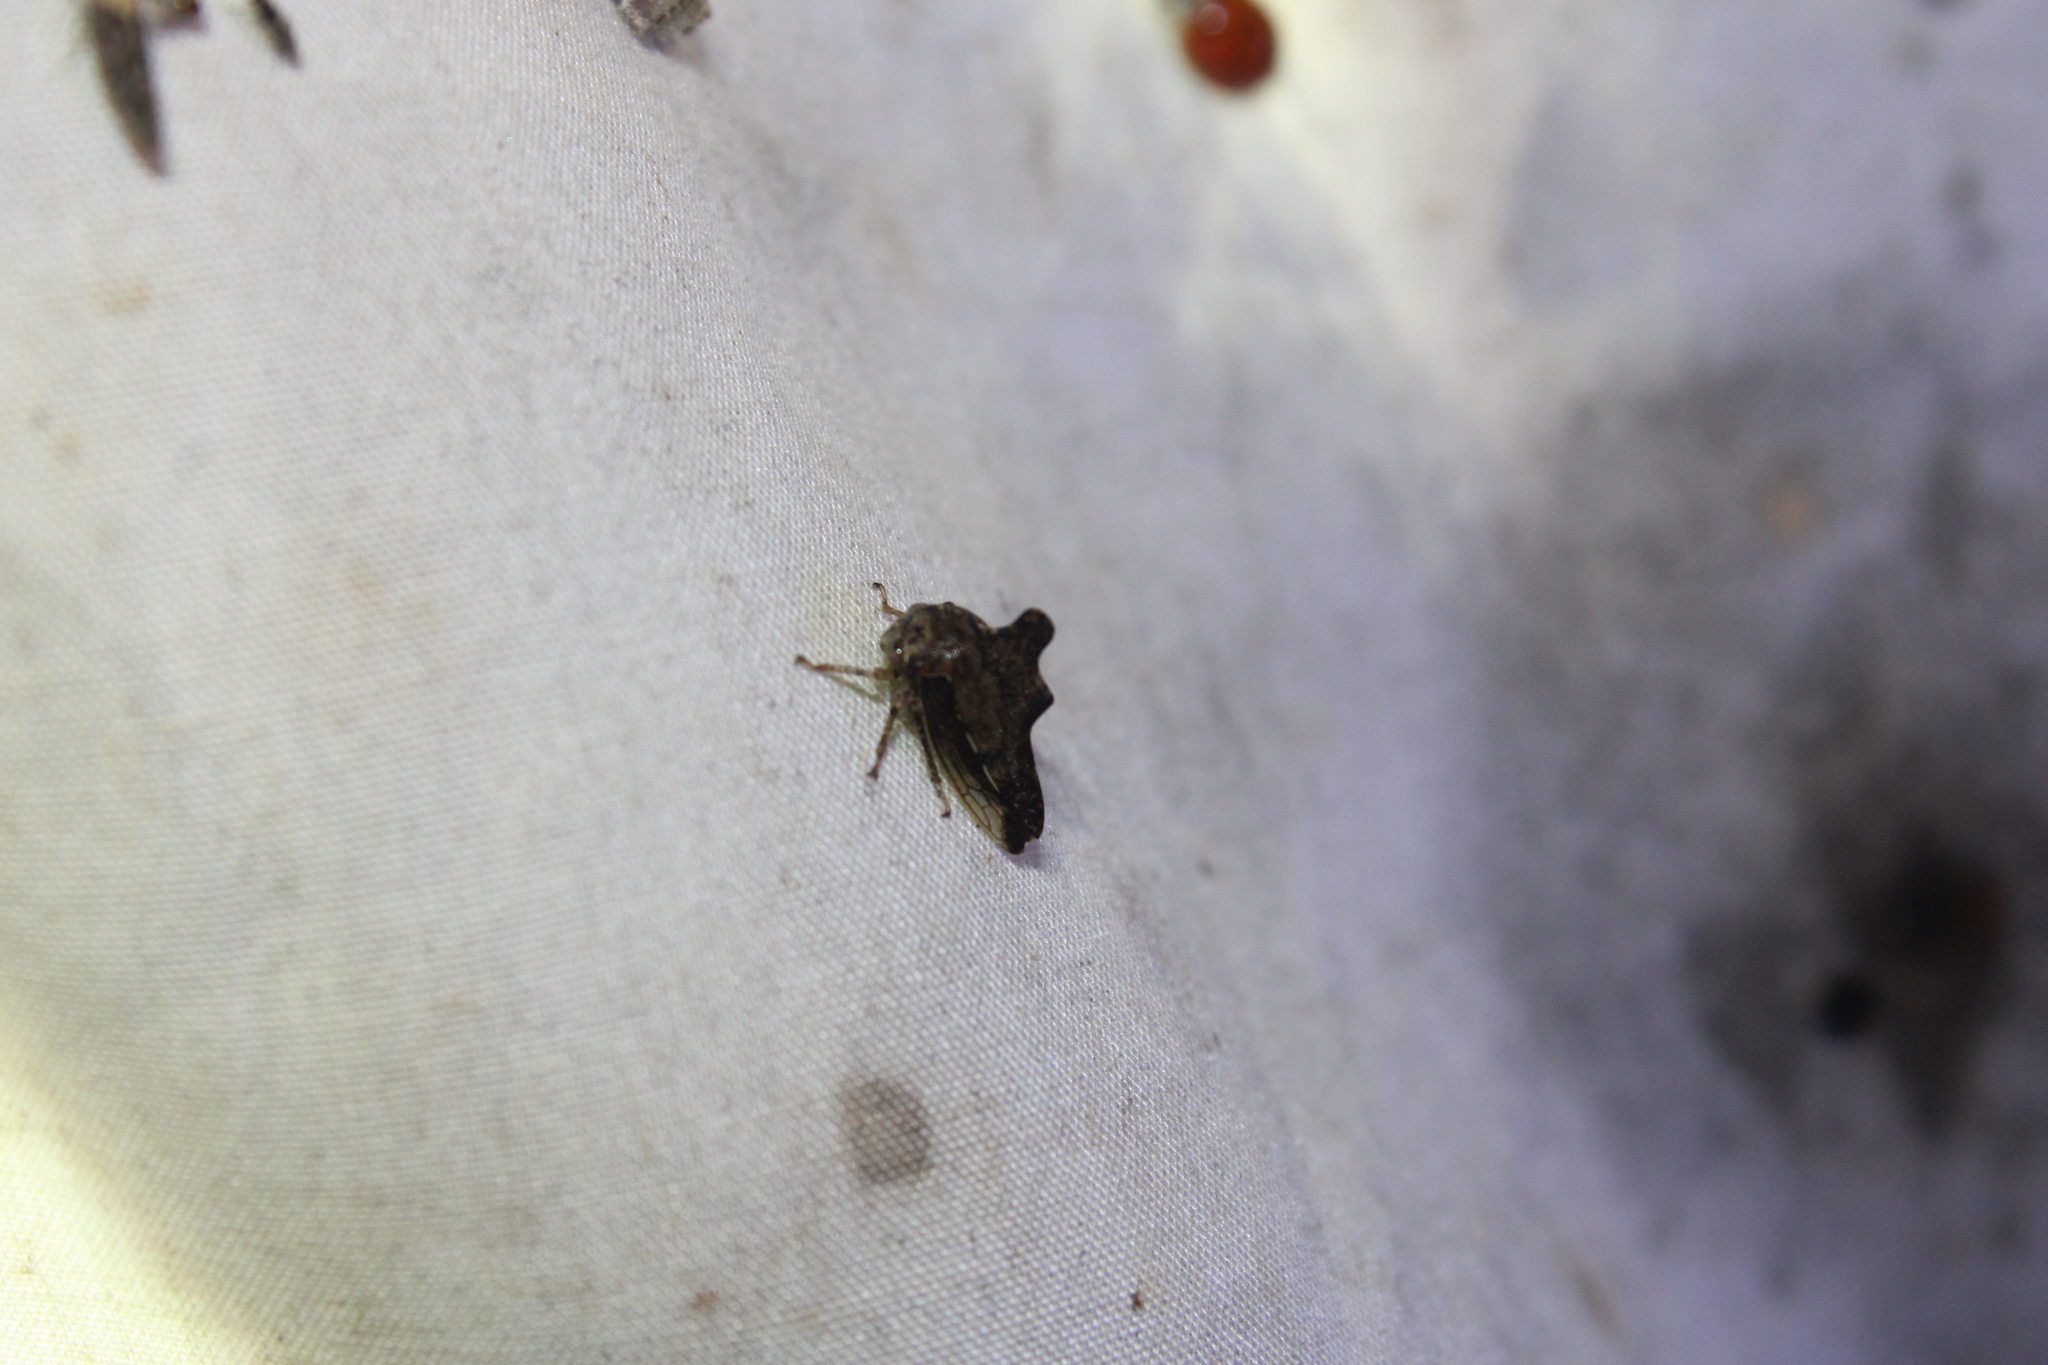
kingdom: Animalia
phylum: Arthropoda
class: Insecta
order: Hemiptera
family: Membracidae
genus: Heliria
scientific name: Heliria cristata
